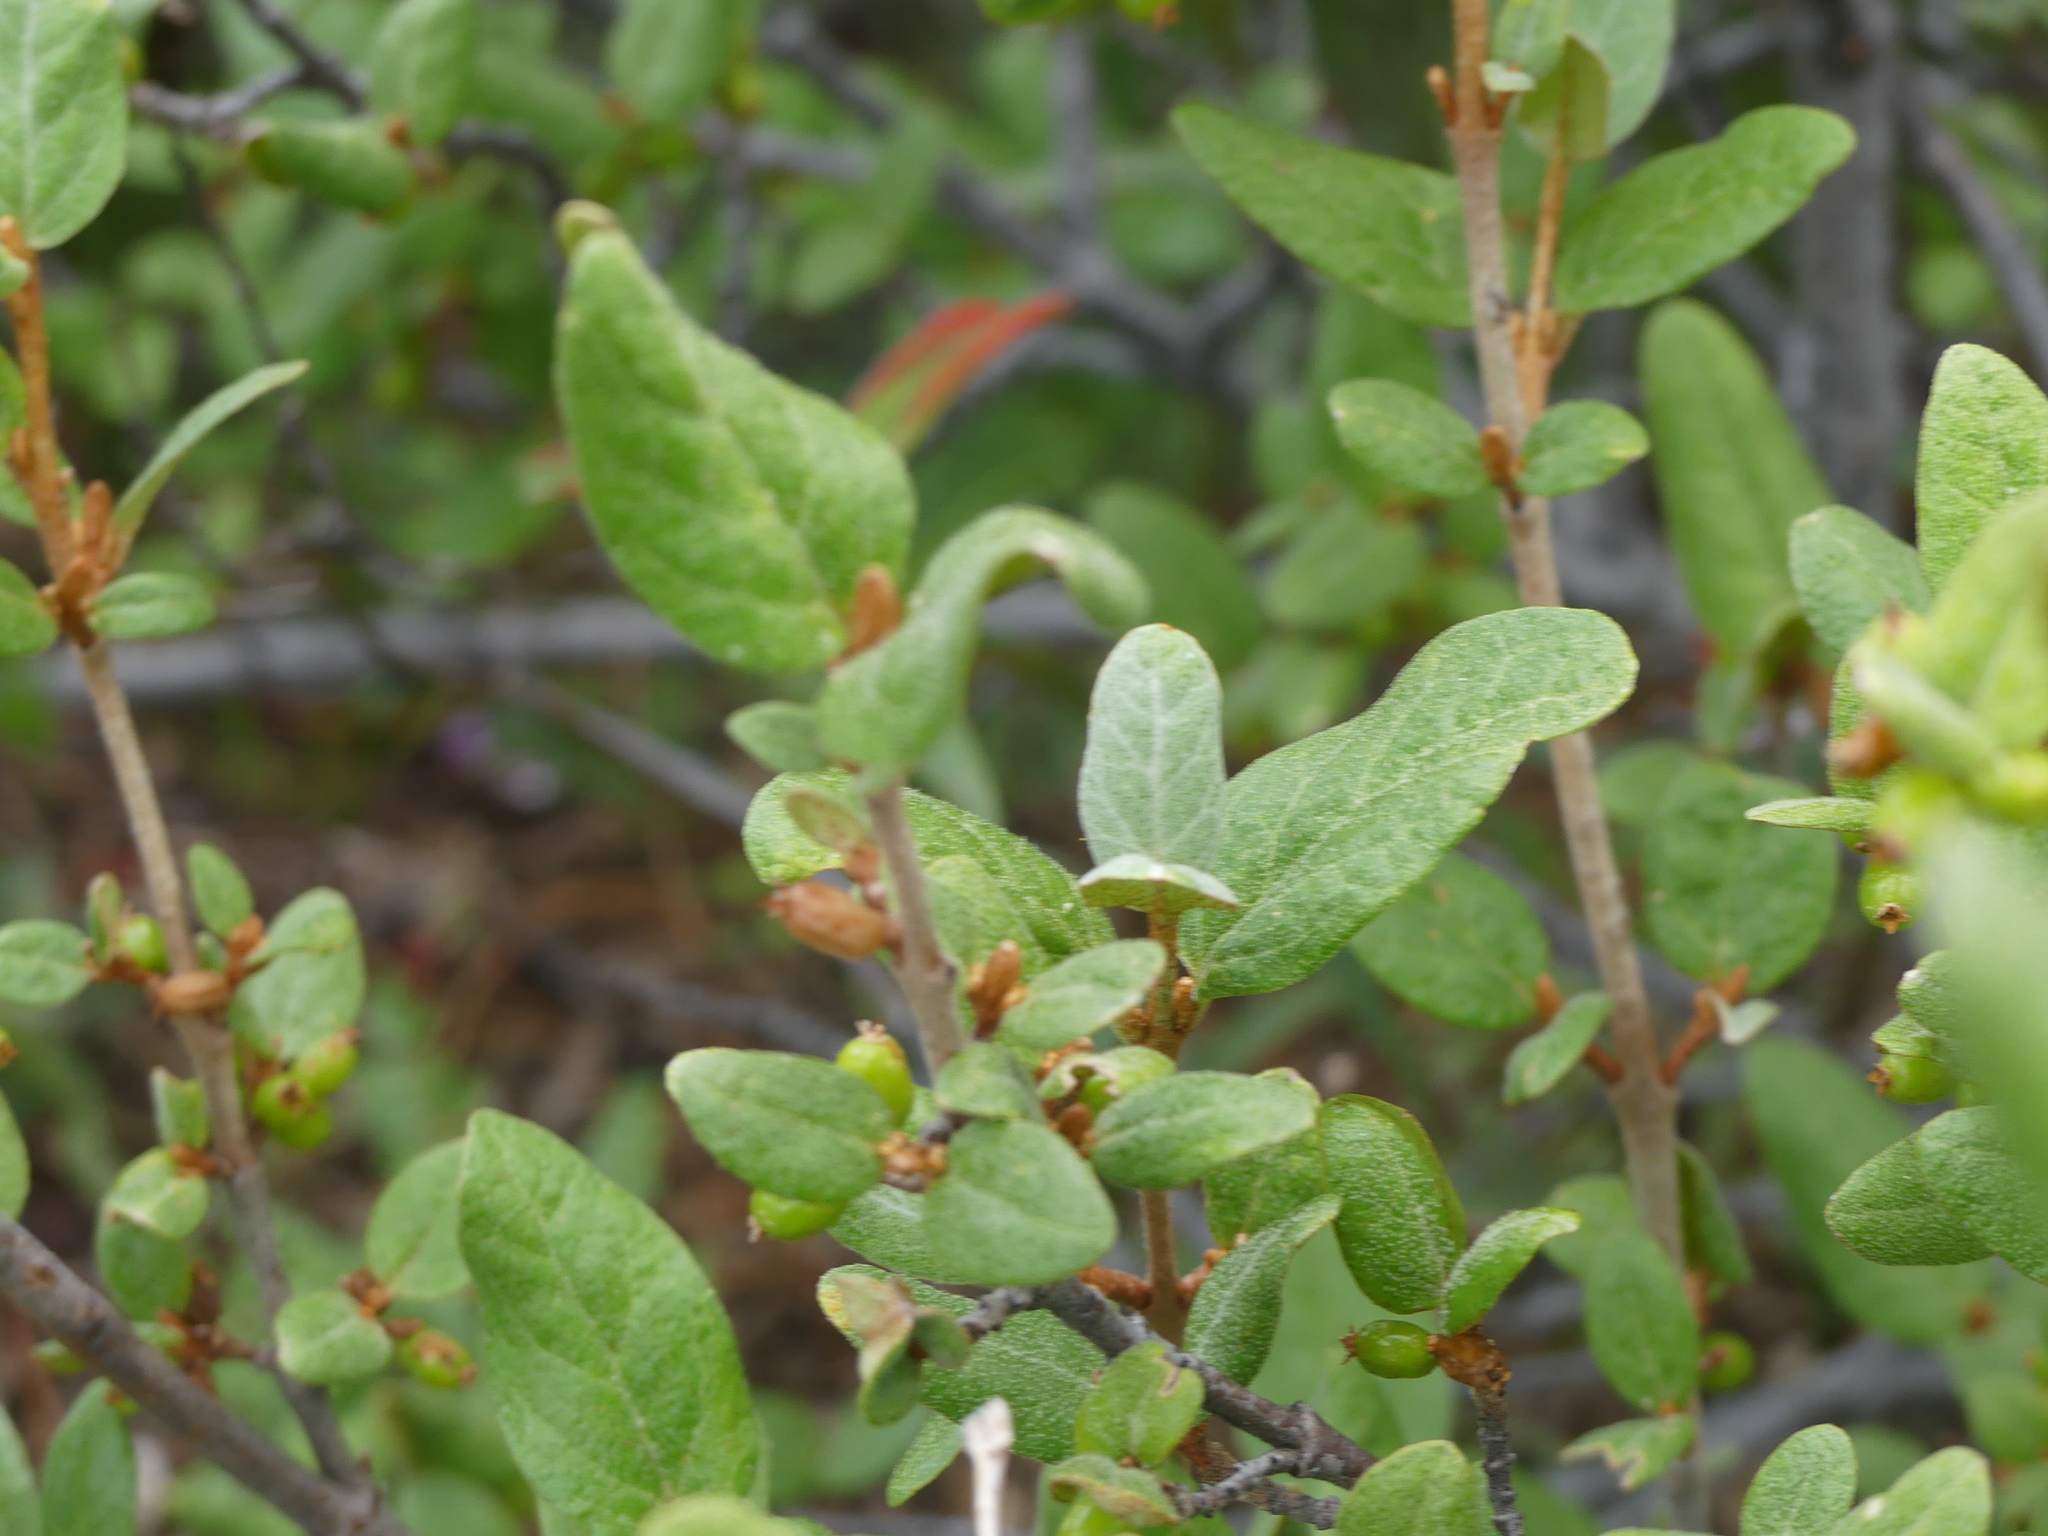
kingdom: Plantae
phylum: Tracheophyta
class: Magnoliopsida
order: Rosales
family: Elaeagnaceae
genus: Shepherdia
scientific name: Shepherdia canadensis
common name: Soapberry
